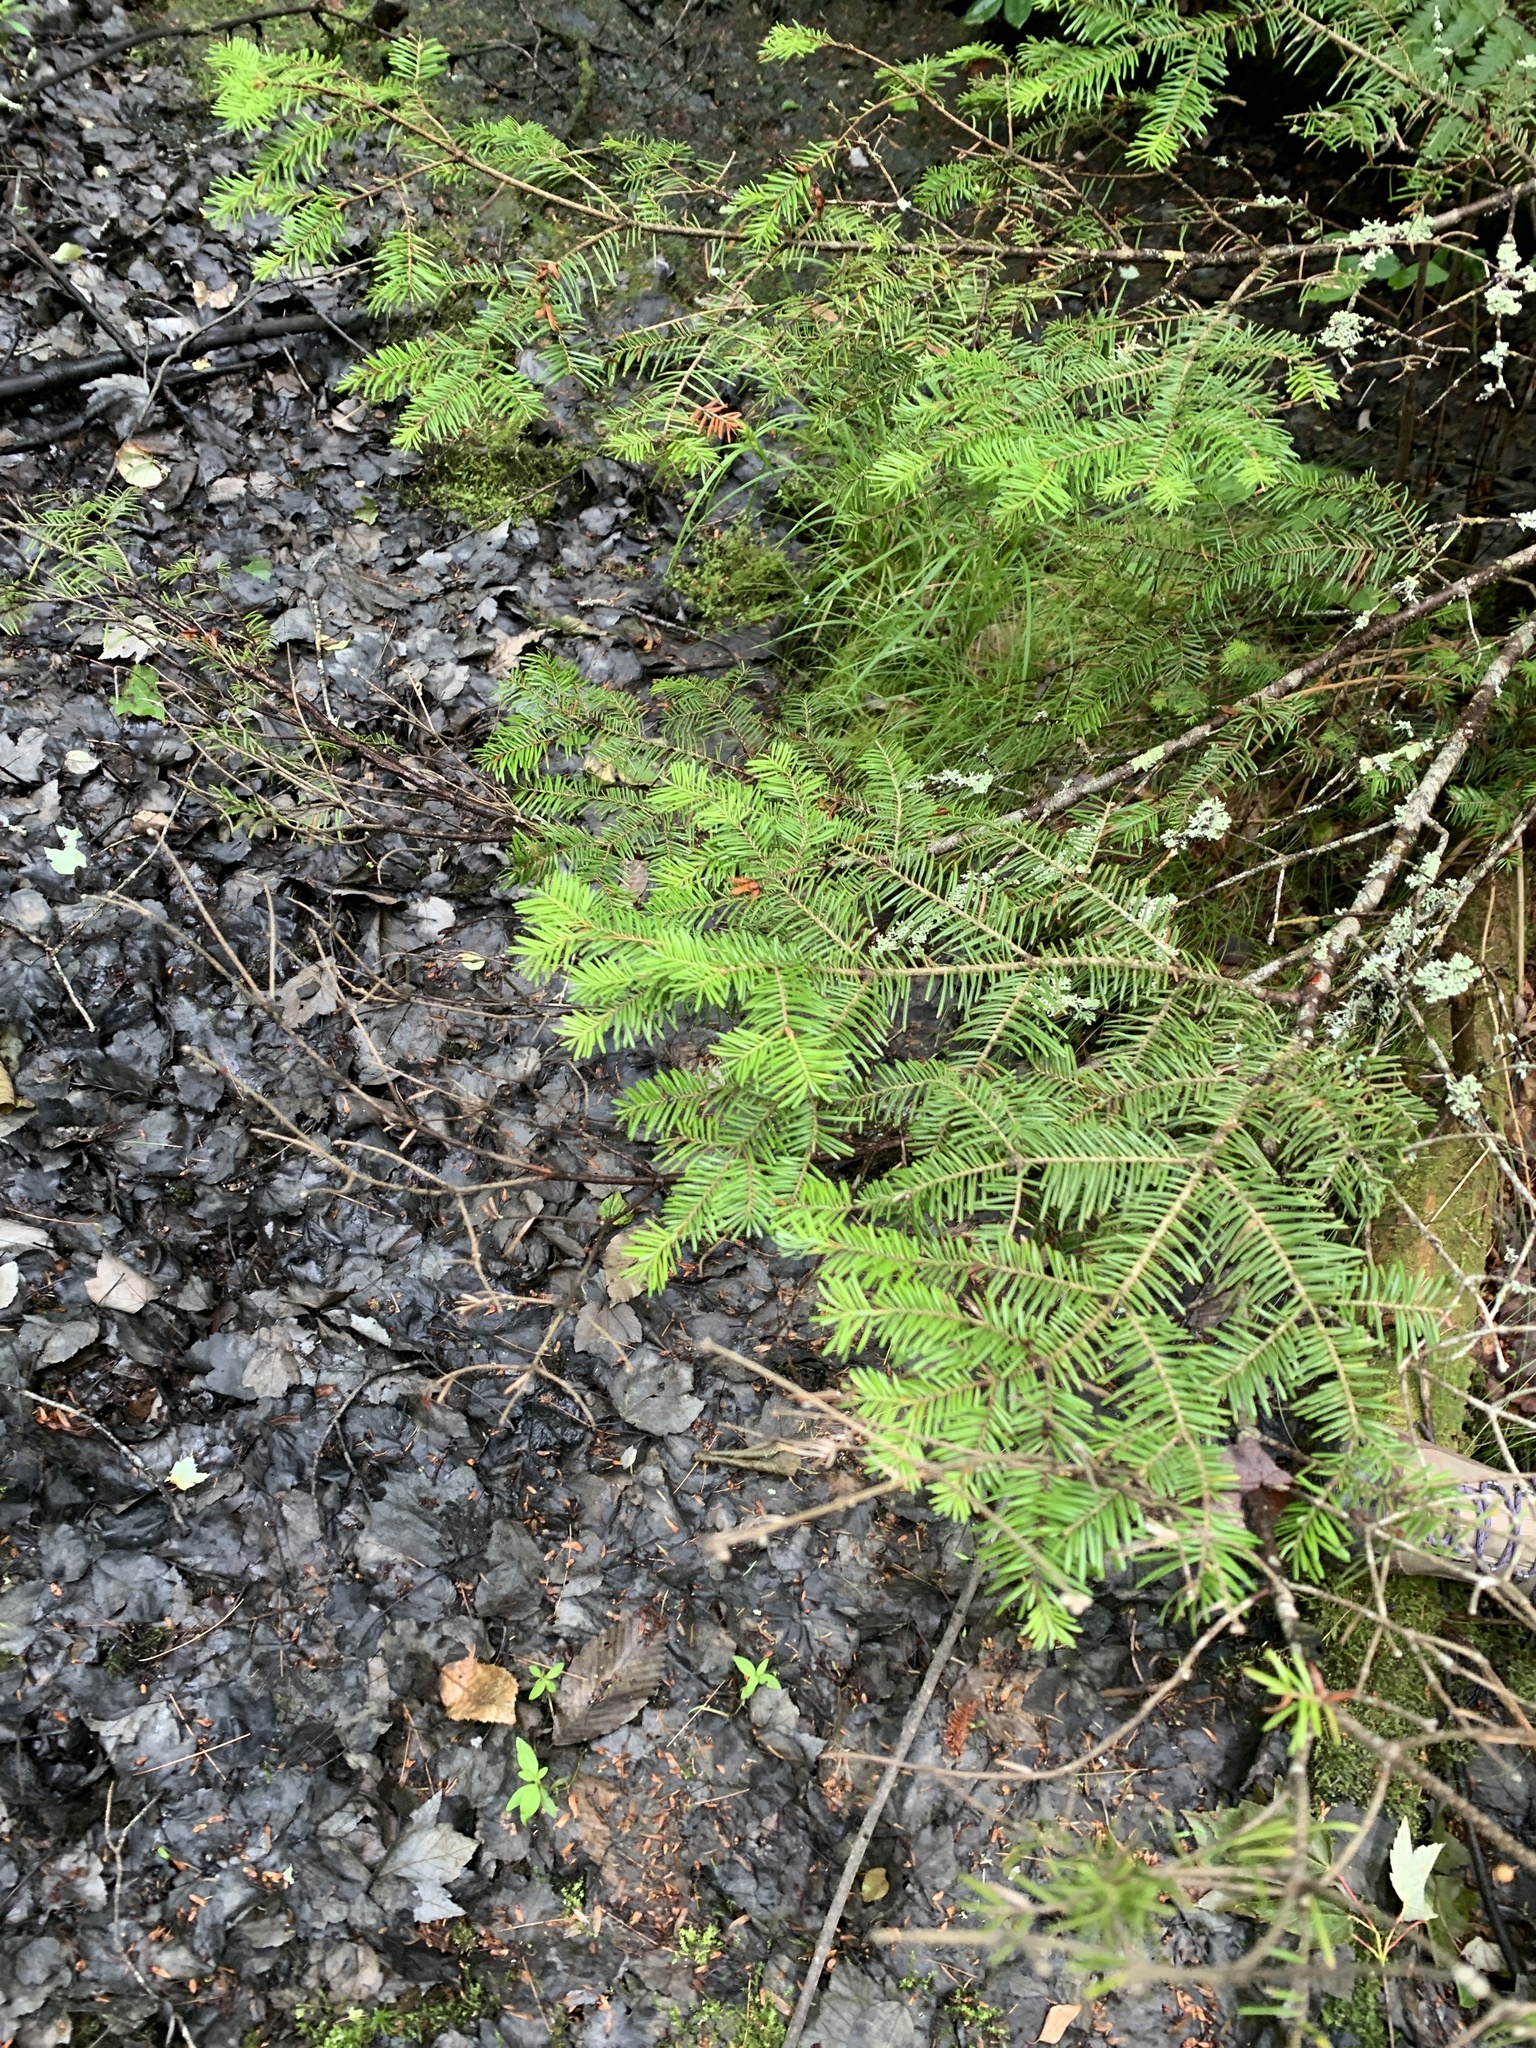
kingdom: Plantae
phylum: Tracheophyta
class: Pinopsida
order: Pinales
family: Pinaceae
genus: Abies
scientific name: Abies balsamea
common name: Balsam fir
